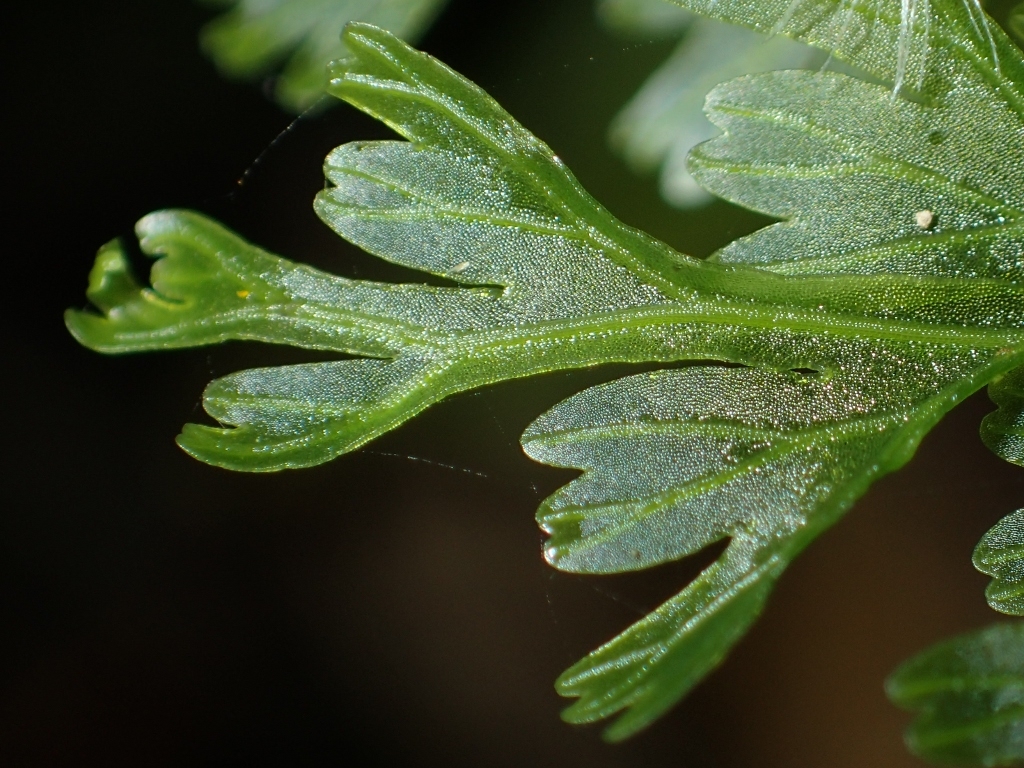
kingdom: Plantae
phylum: Tracheophyta
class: Polypodiopsida
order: Hymenophyllales
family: Hymenophyllaceae
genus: Hymenophyllum
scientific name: Hymenophyllum demissum
